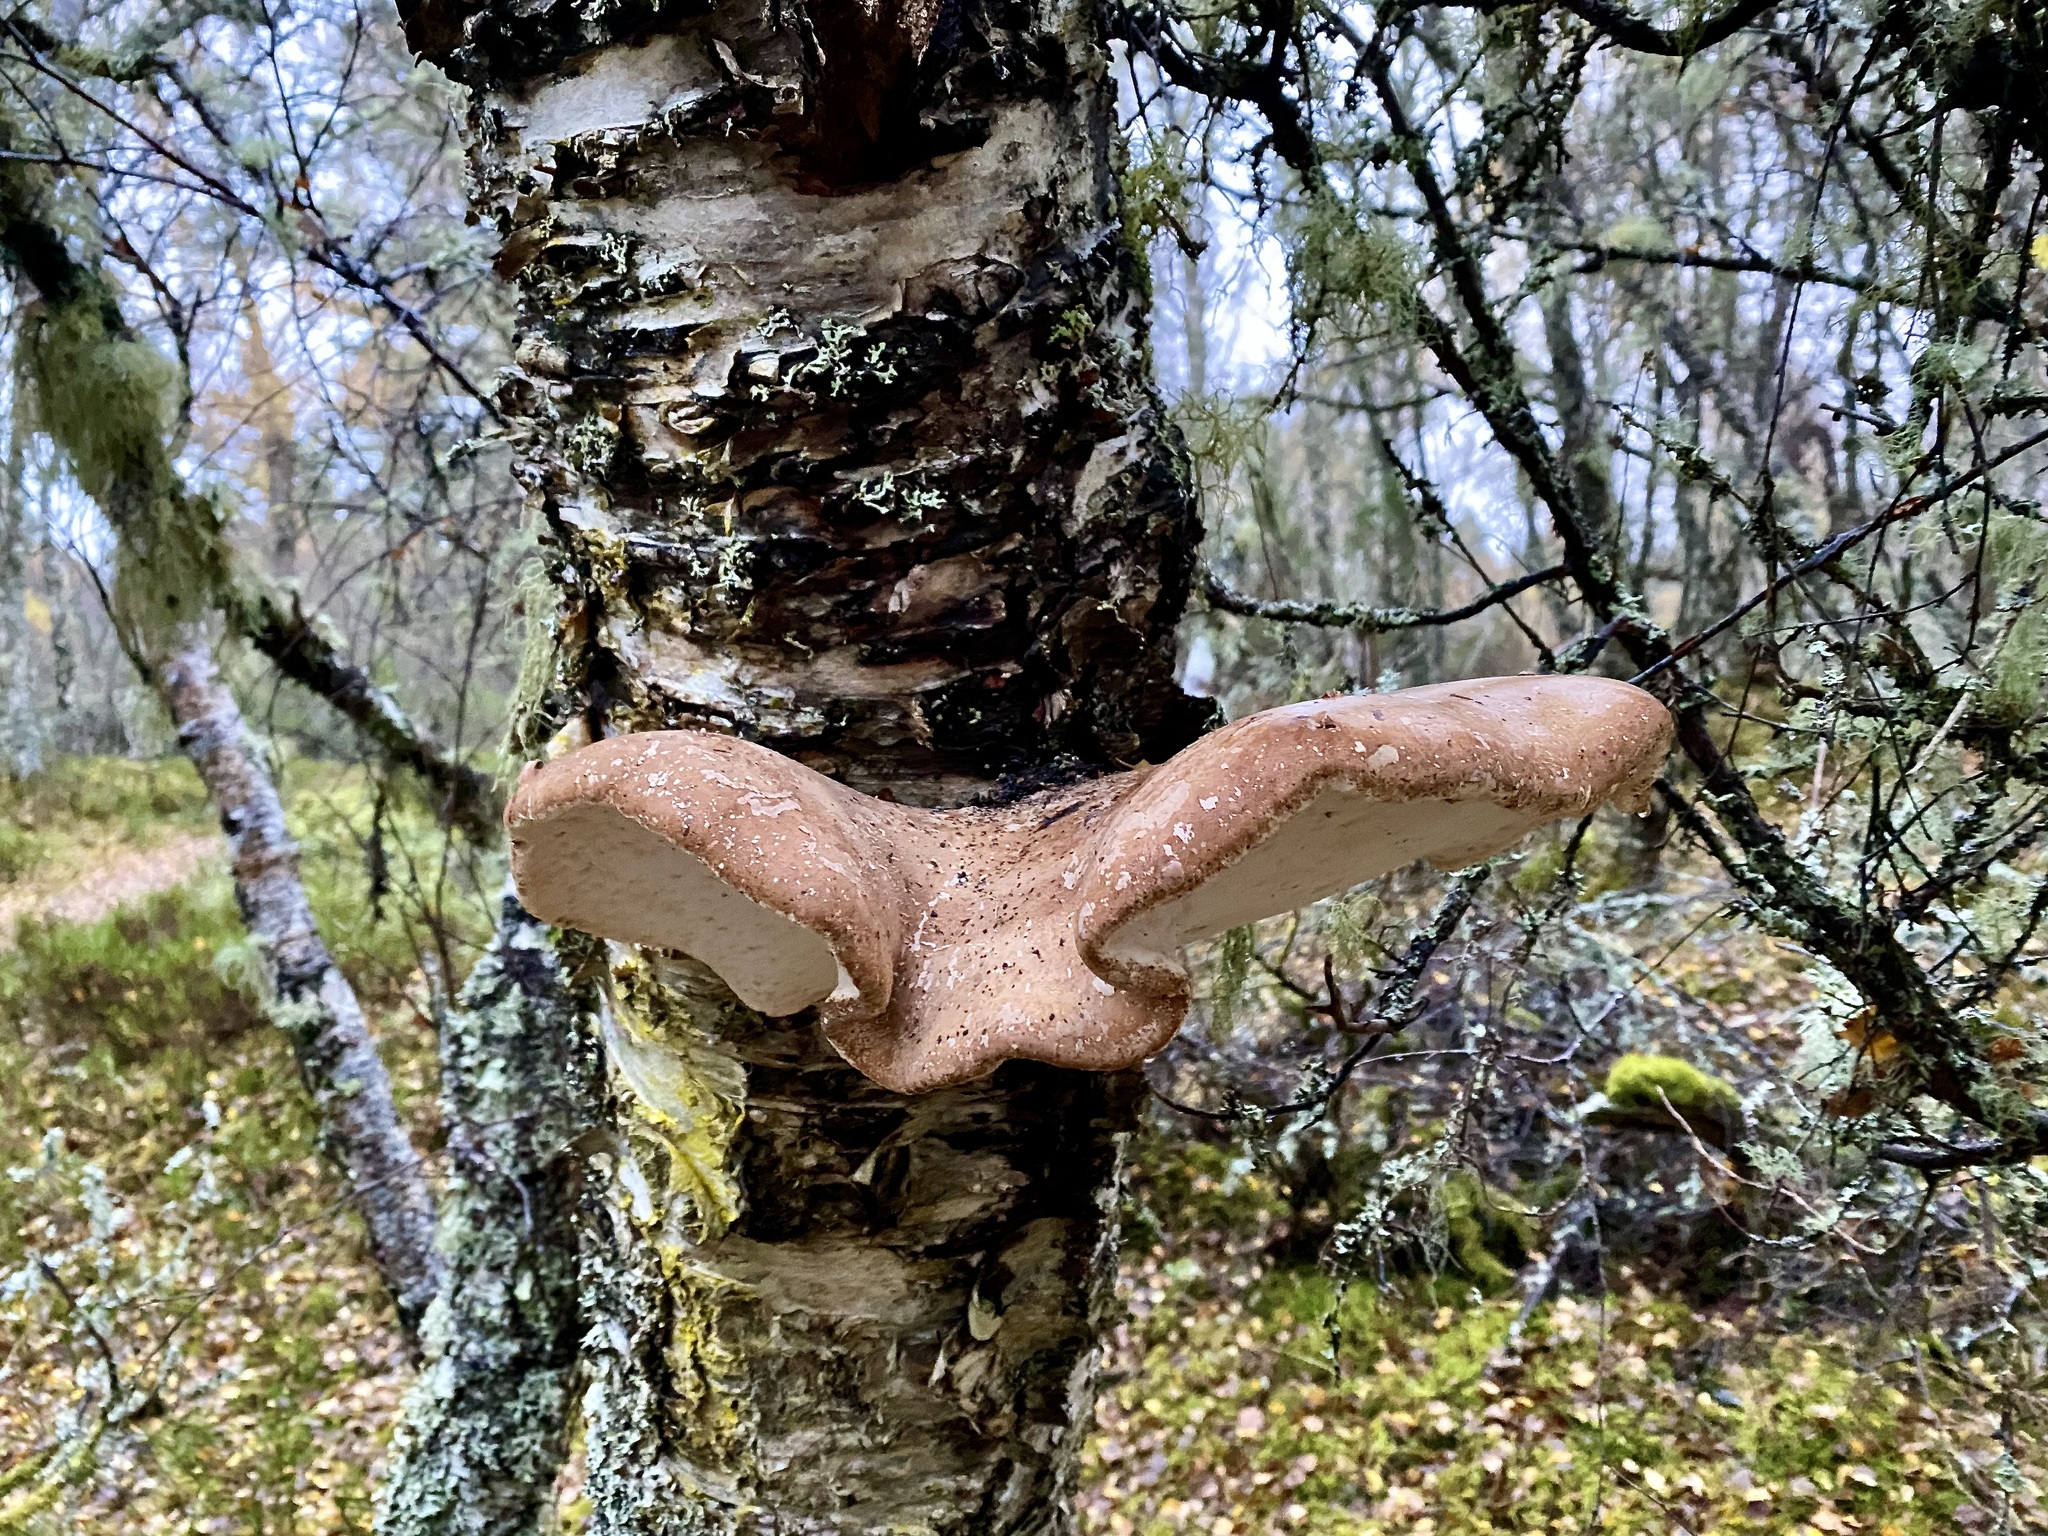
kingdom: Fungi
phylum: Basidiomycota
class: Agaricomycetes
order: Polyporales
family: Fomitopsidaceae
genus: Fomitopsis
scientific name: Fomitopsis betulina
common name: Birch polypore
